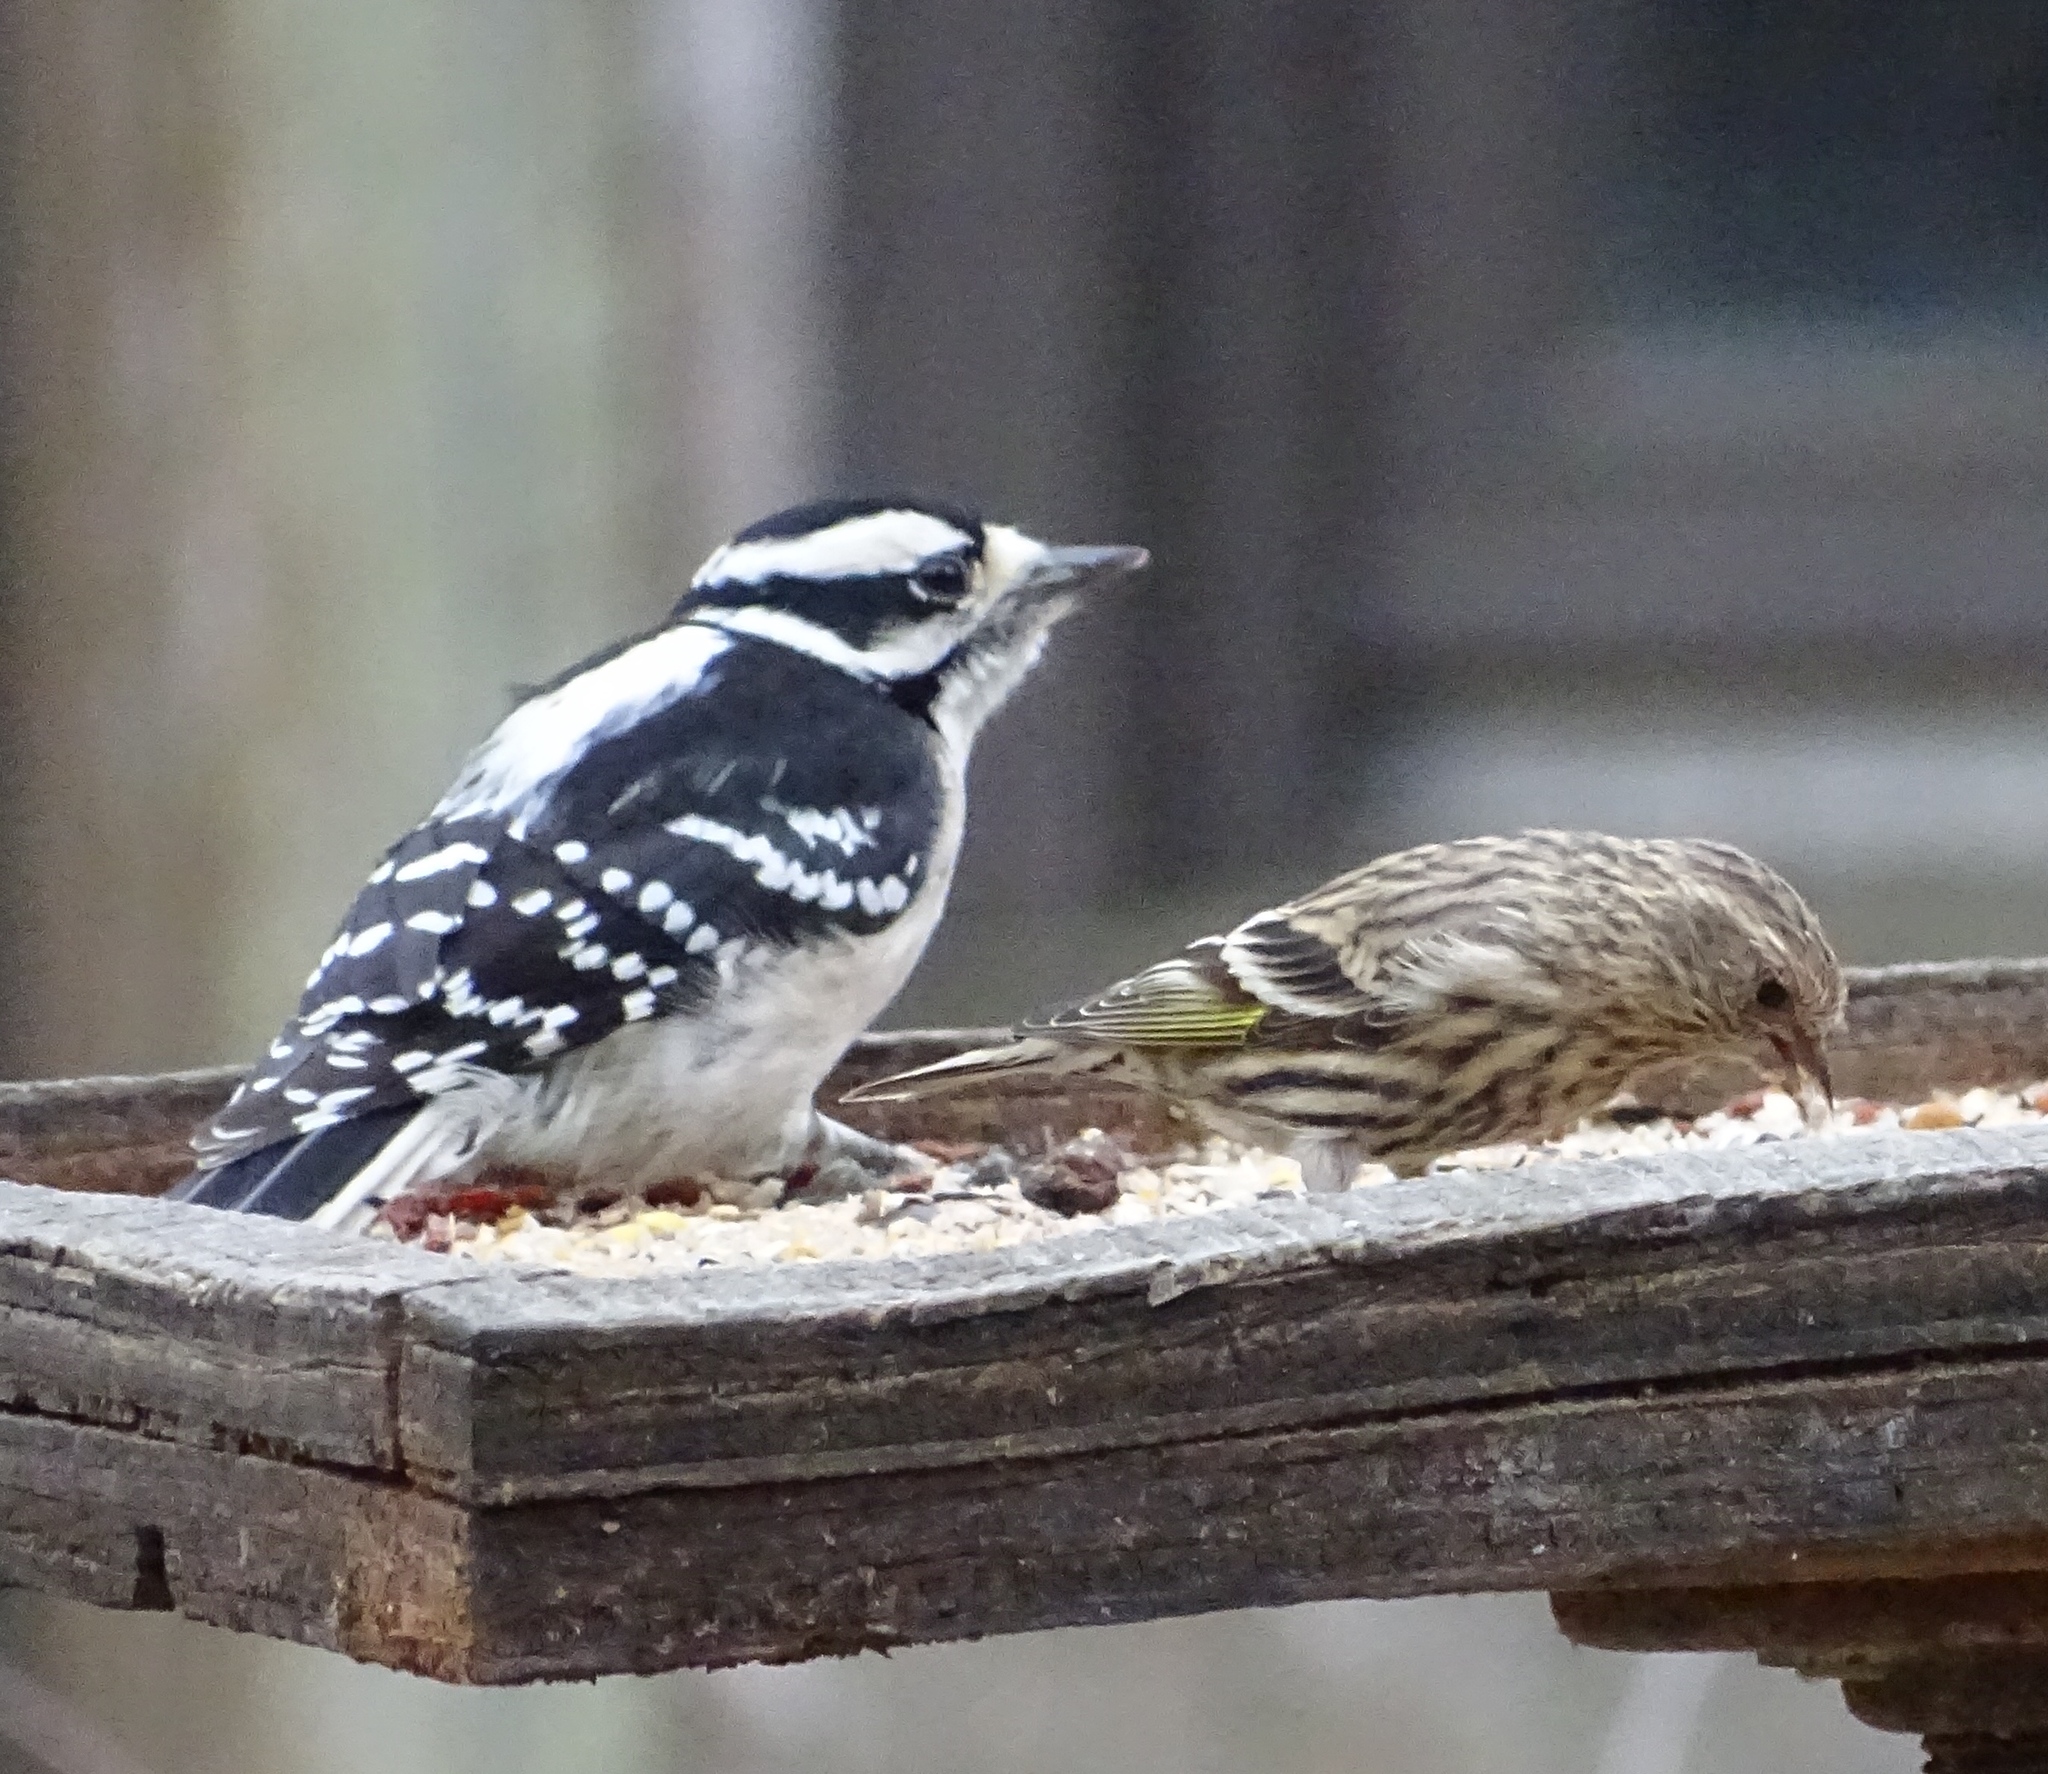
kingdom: Animalia
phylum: Chordata
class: Aves
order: Piciformes
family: Picidae
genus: Dryobates
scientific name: Dryobates pubescens
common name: Downy woodpecker
